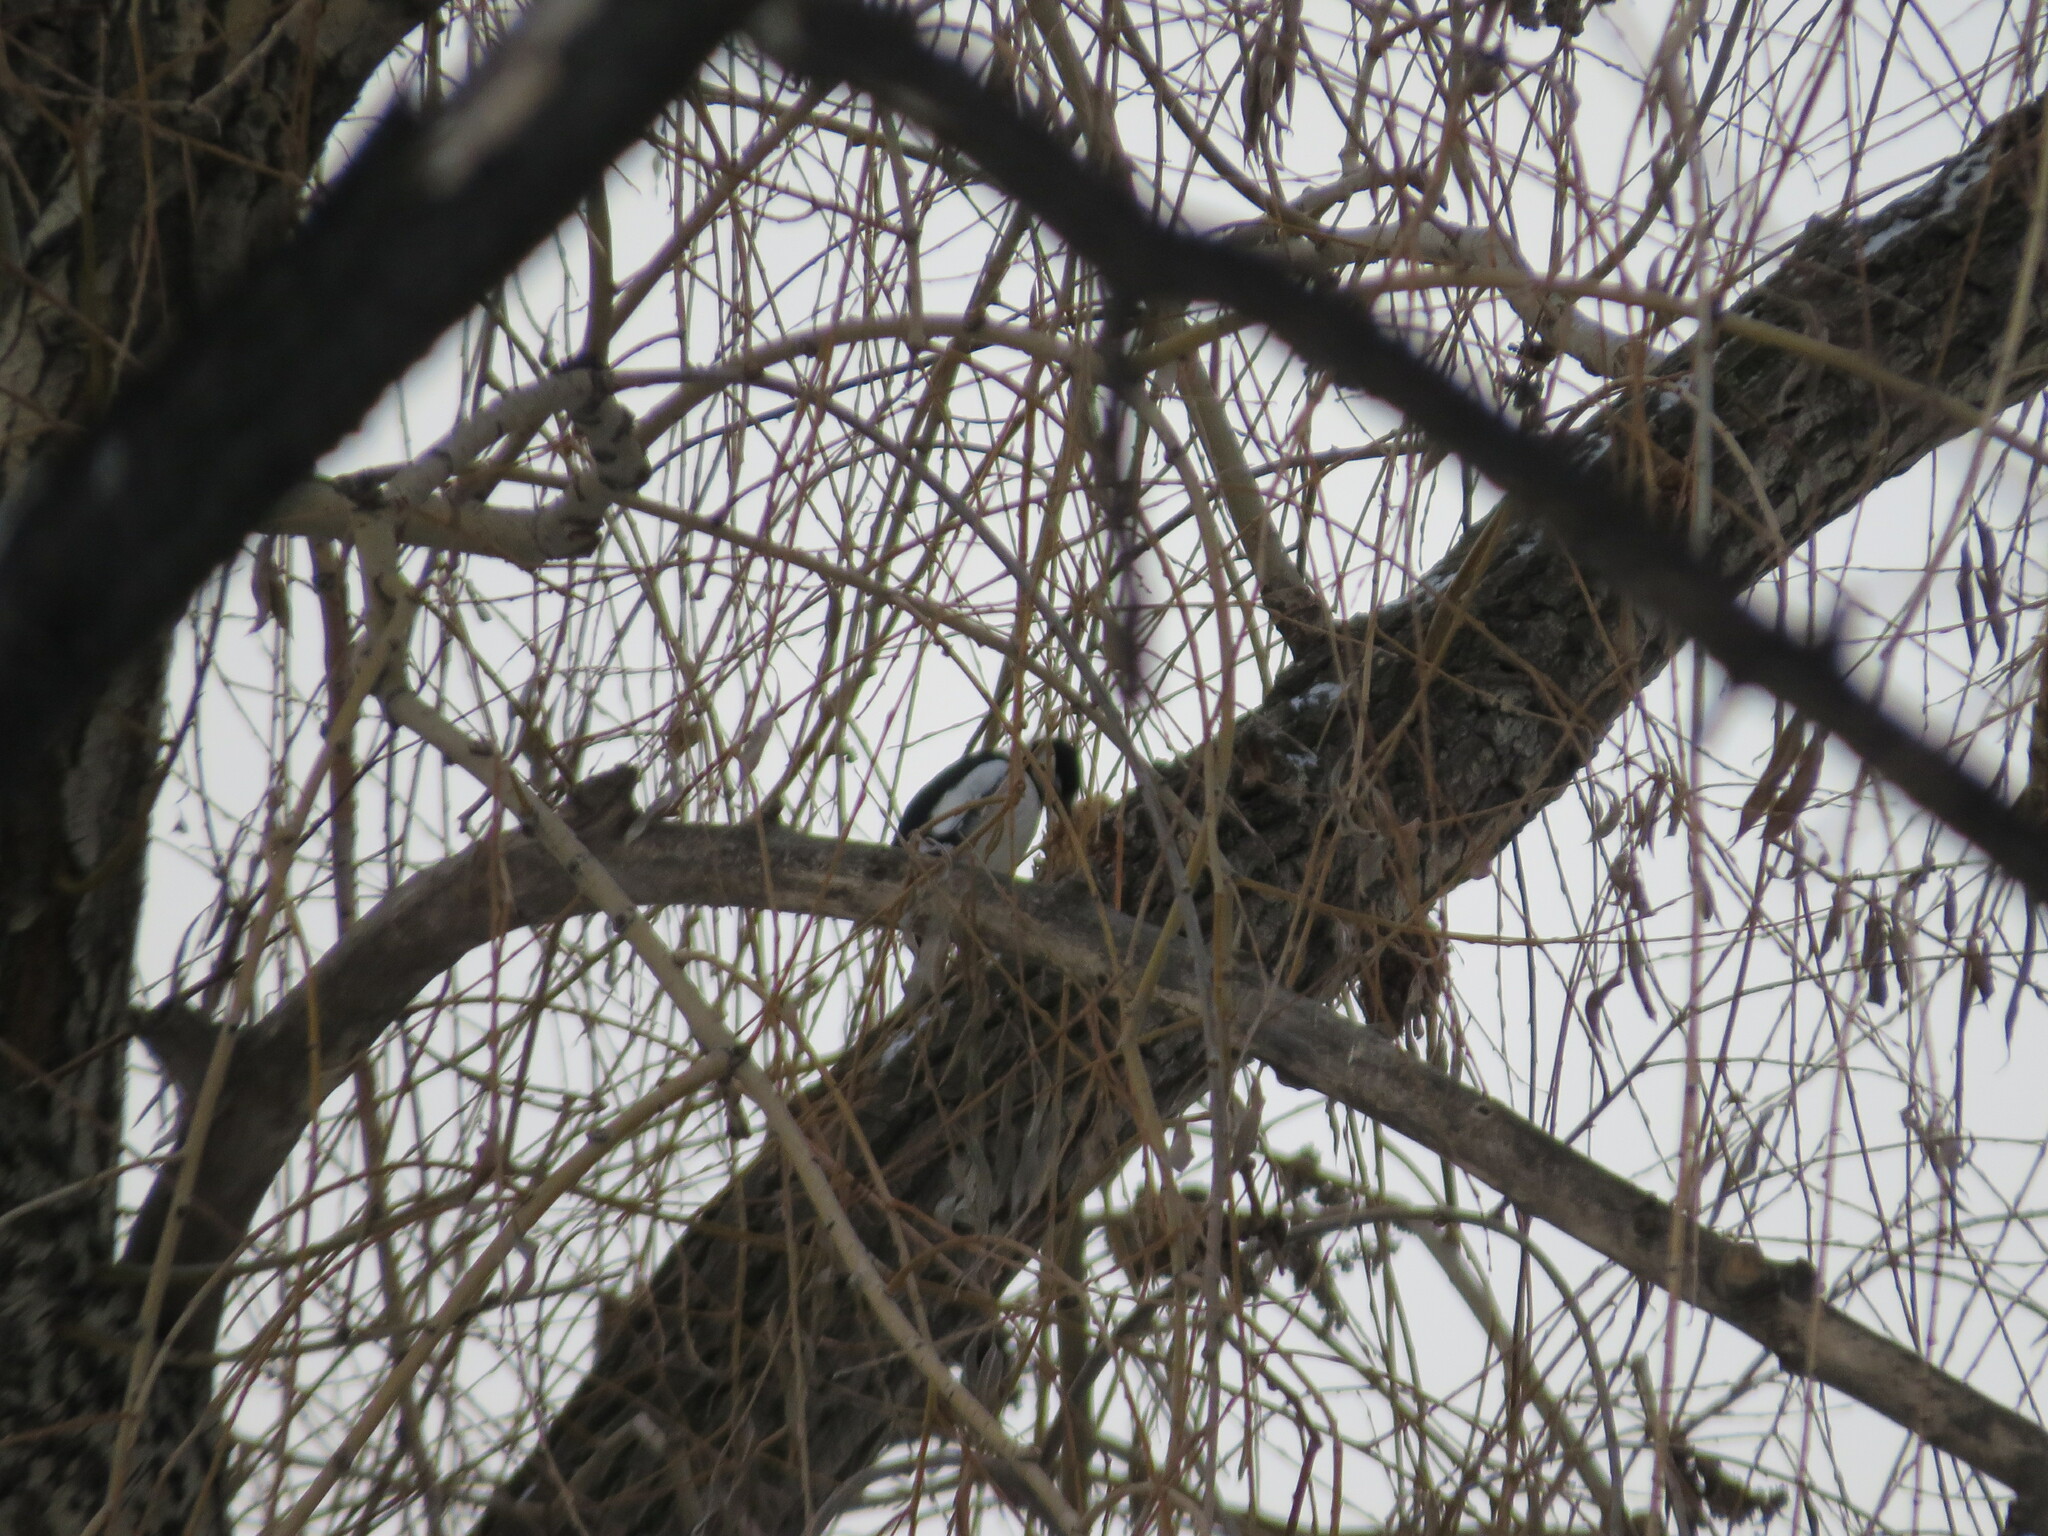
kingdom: Animalia
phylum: Chordata
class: Aves
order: Piciformes
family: Picidae
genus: Dendrocopos
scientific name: Dendrocopos major
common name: Great spotted woodpecker
